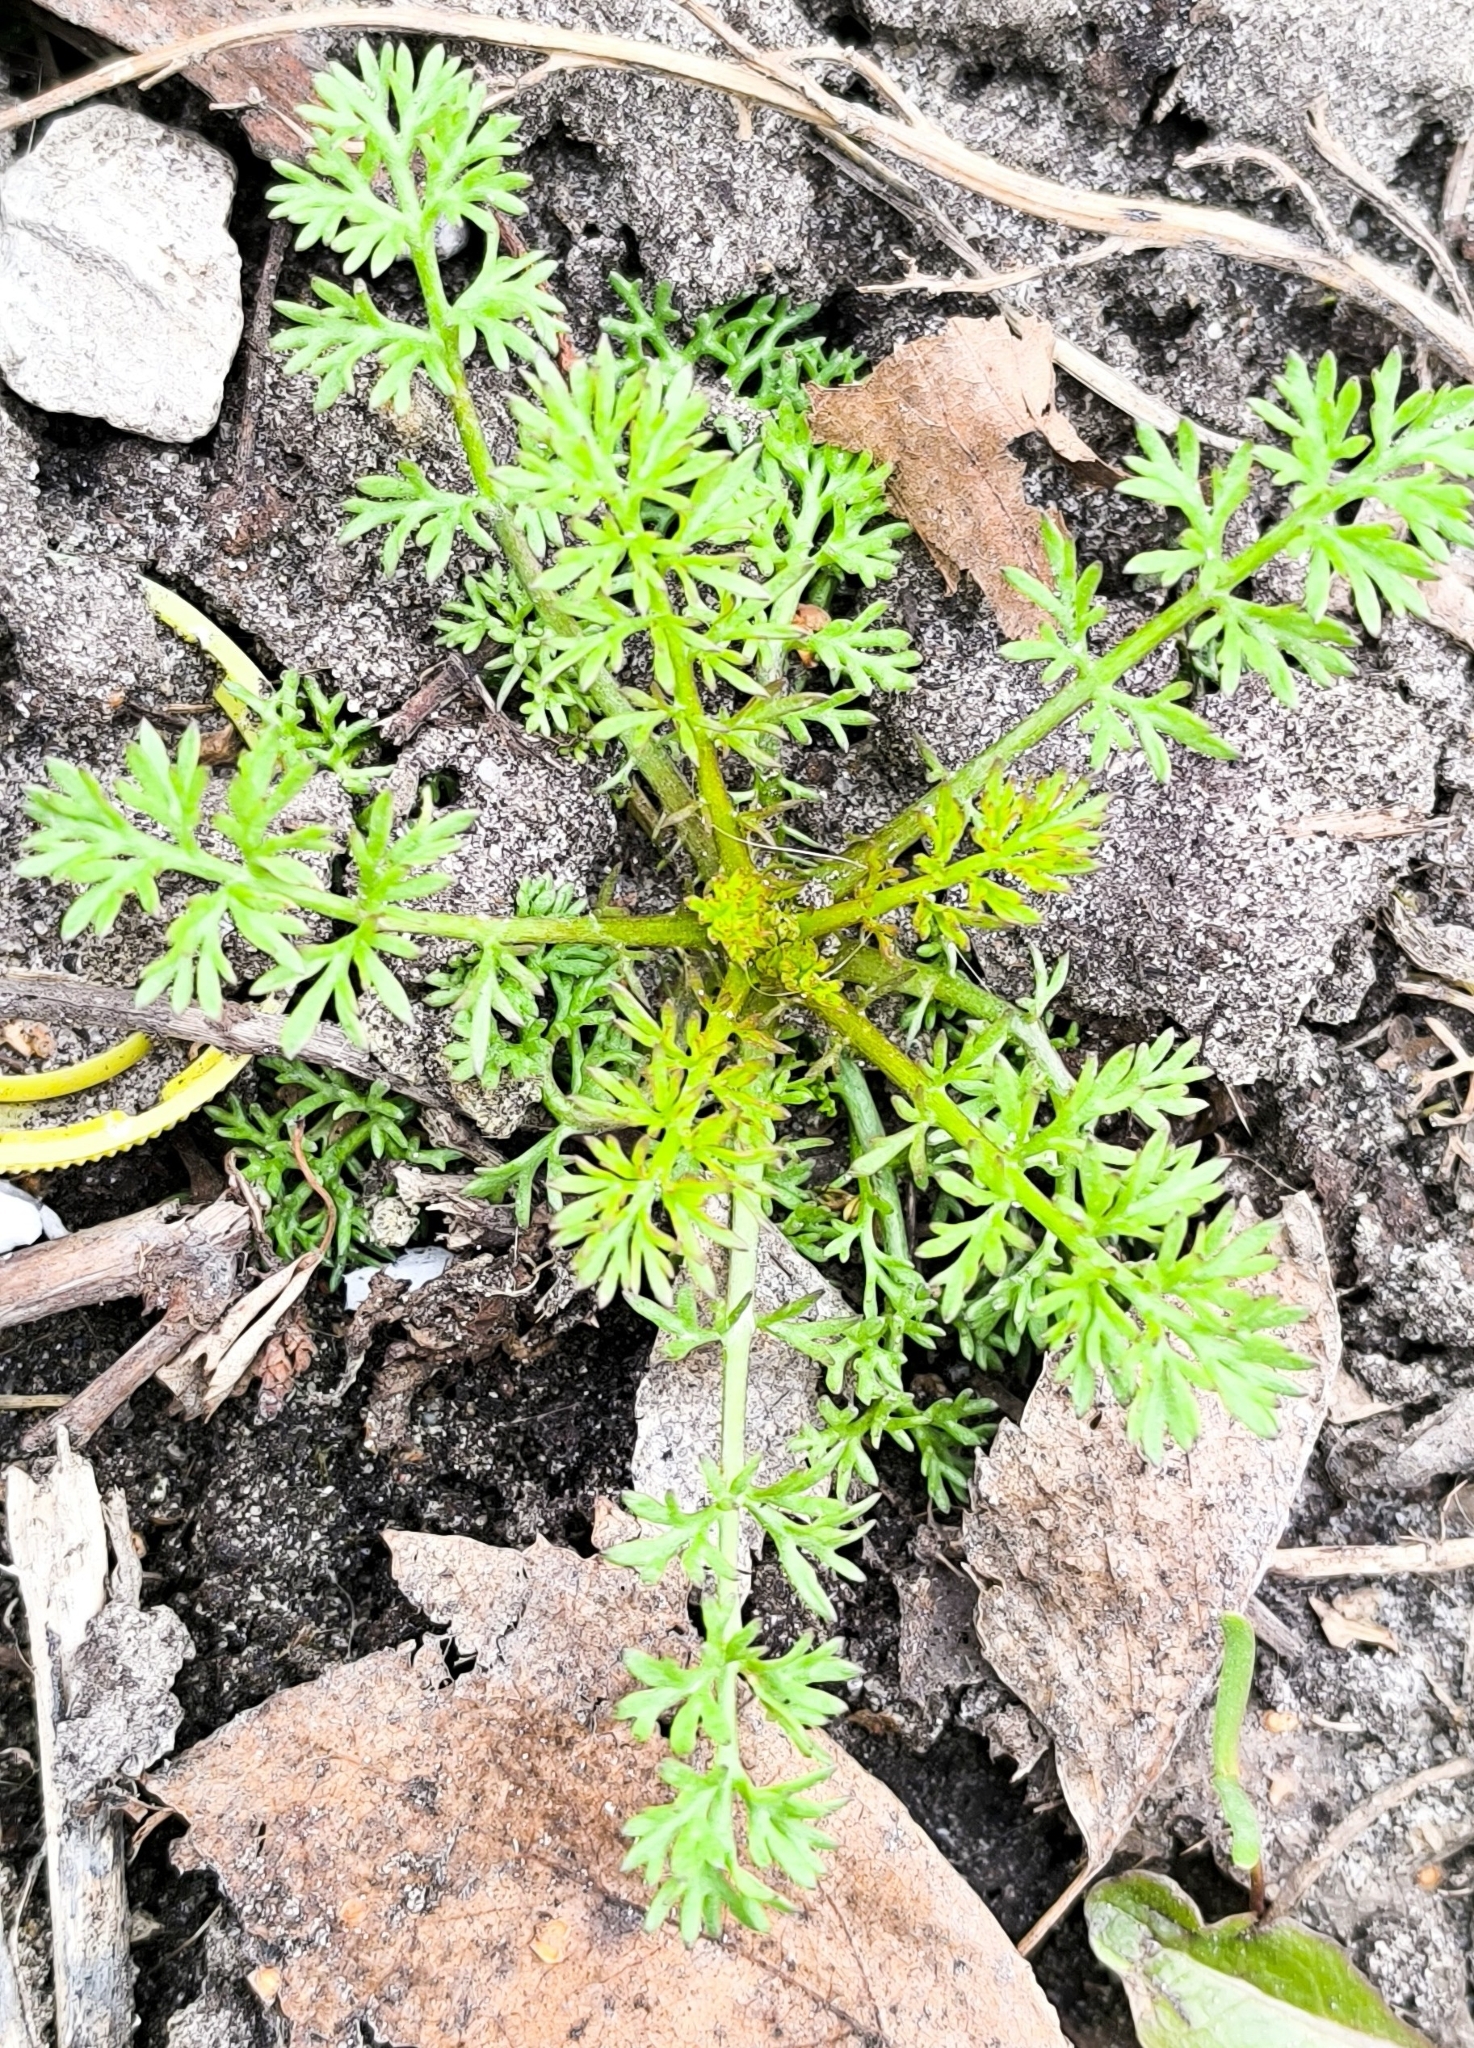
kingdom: Plantae
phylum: Tracheophyta
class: Magnoliopsida
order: Apiales
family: Apiaceae
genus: Carum
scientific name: Carum carvi
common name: Caraway
